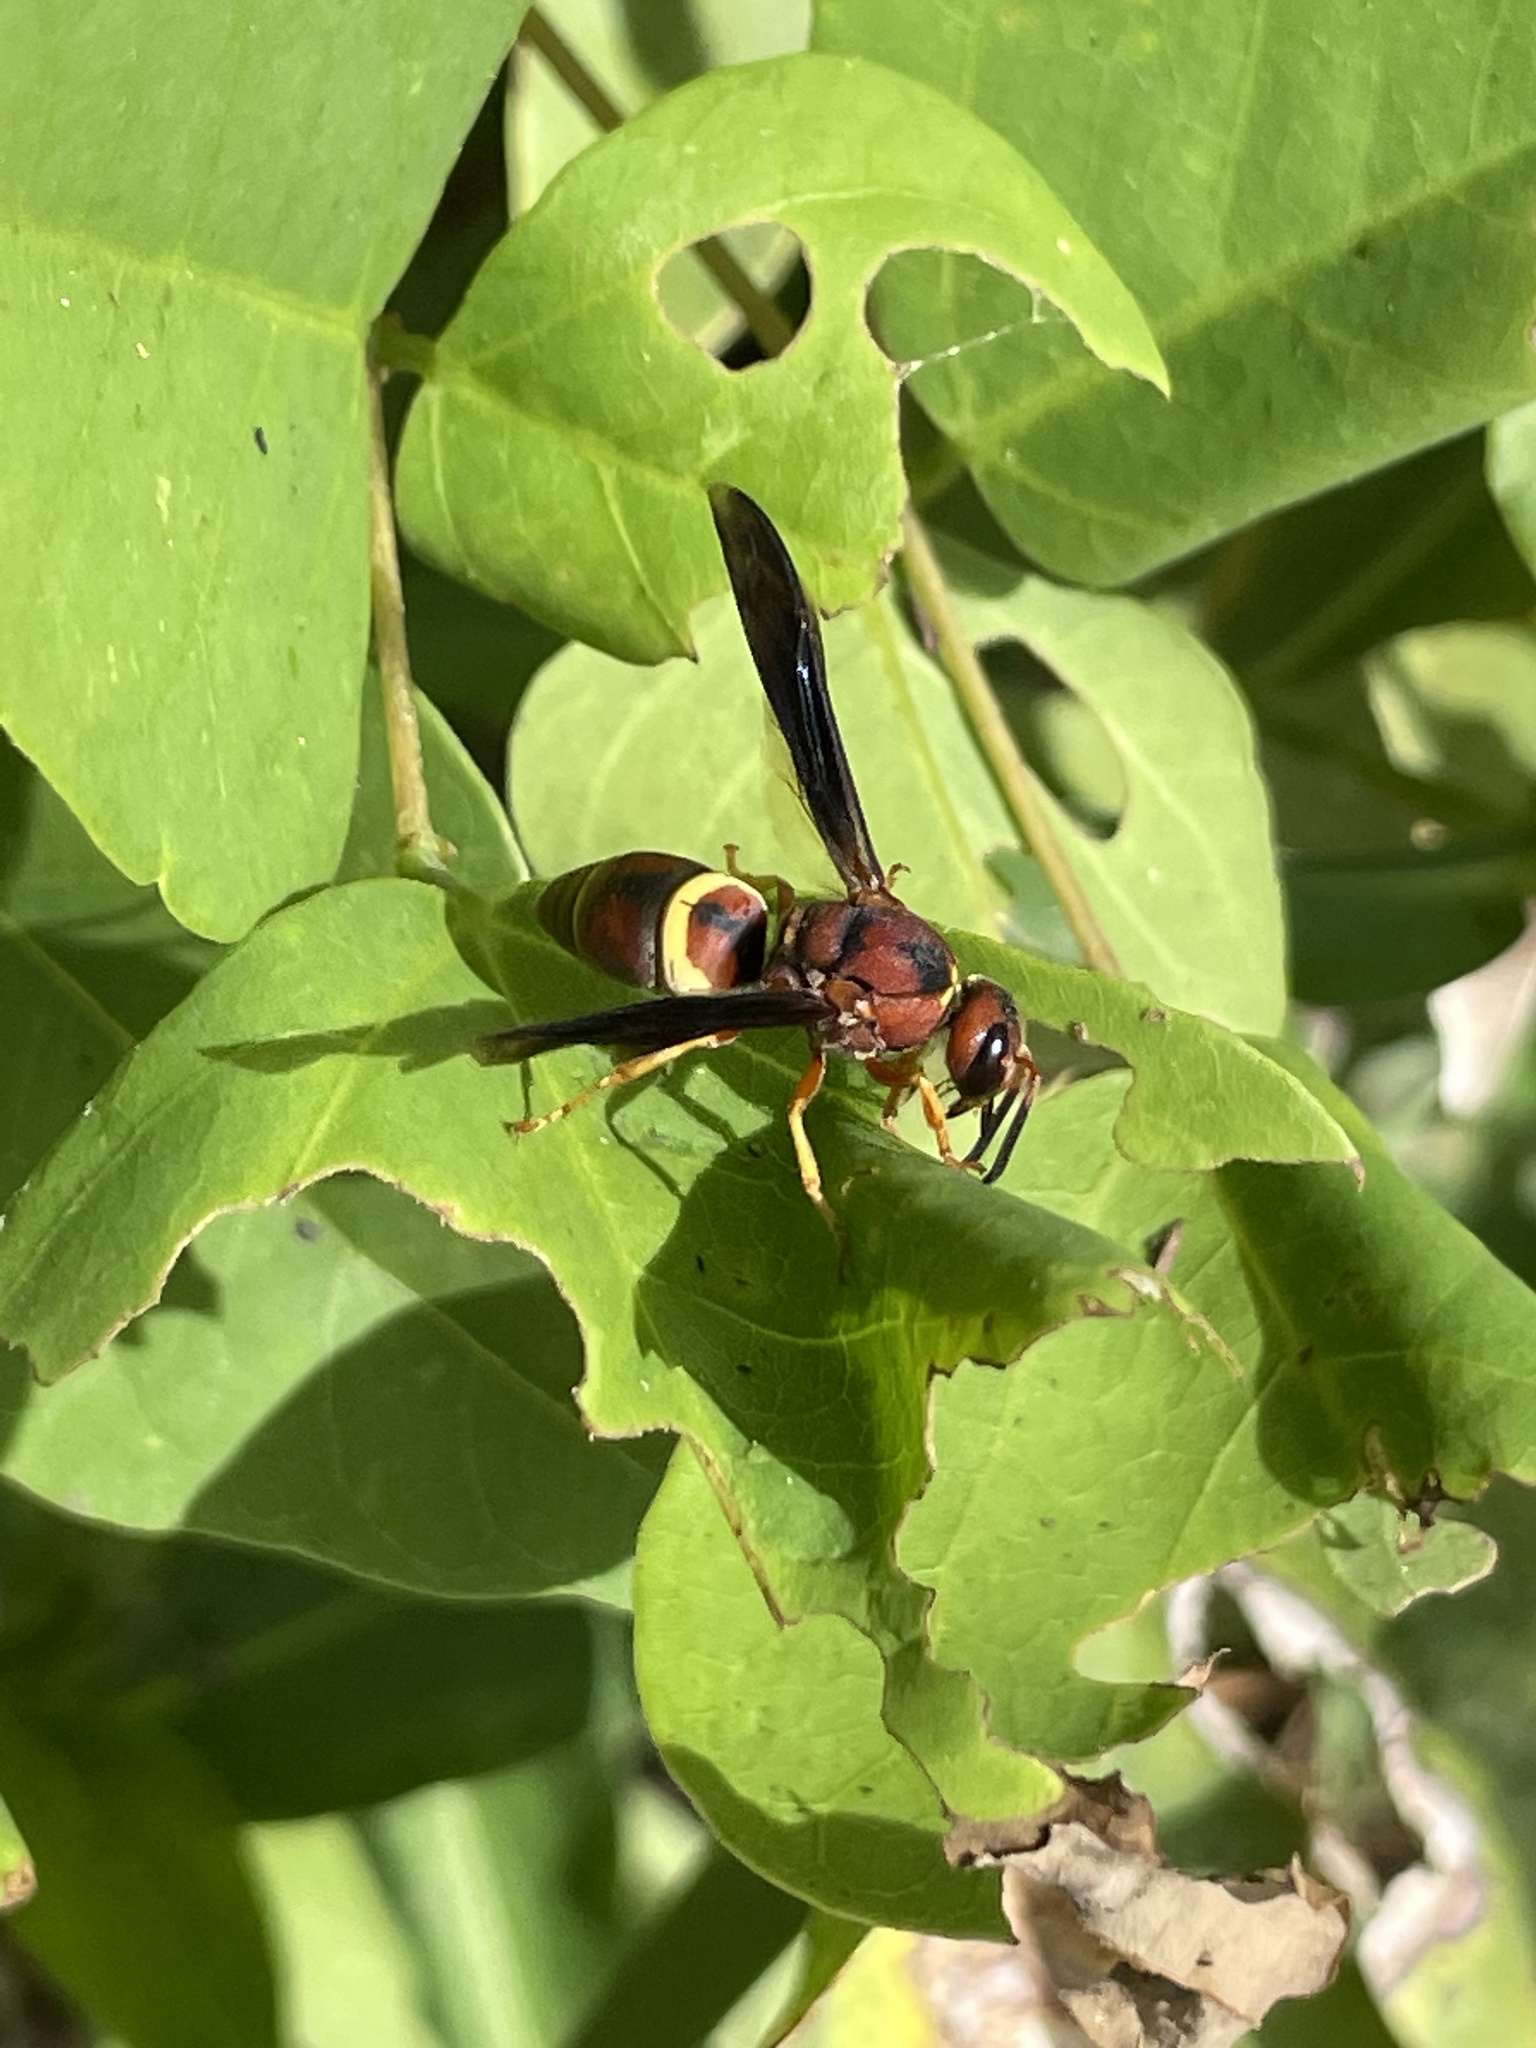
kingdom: Animalia
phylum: Arthropoda
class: Insecta
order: Hymenoptera
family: Eumenidae
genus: Euodynerus
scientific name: Euodynerus crypticus
